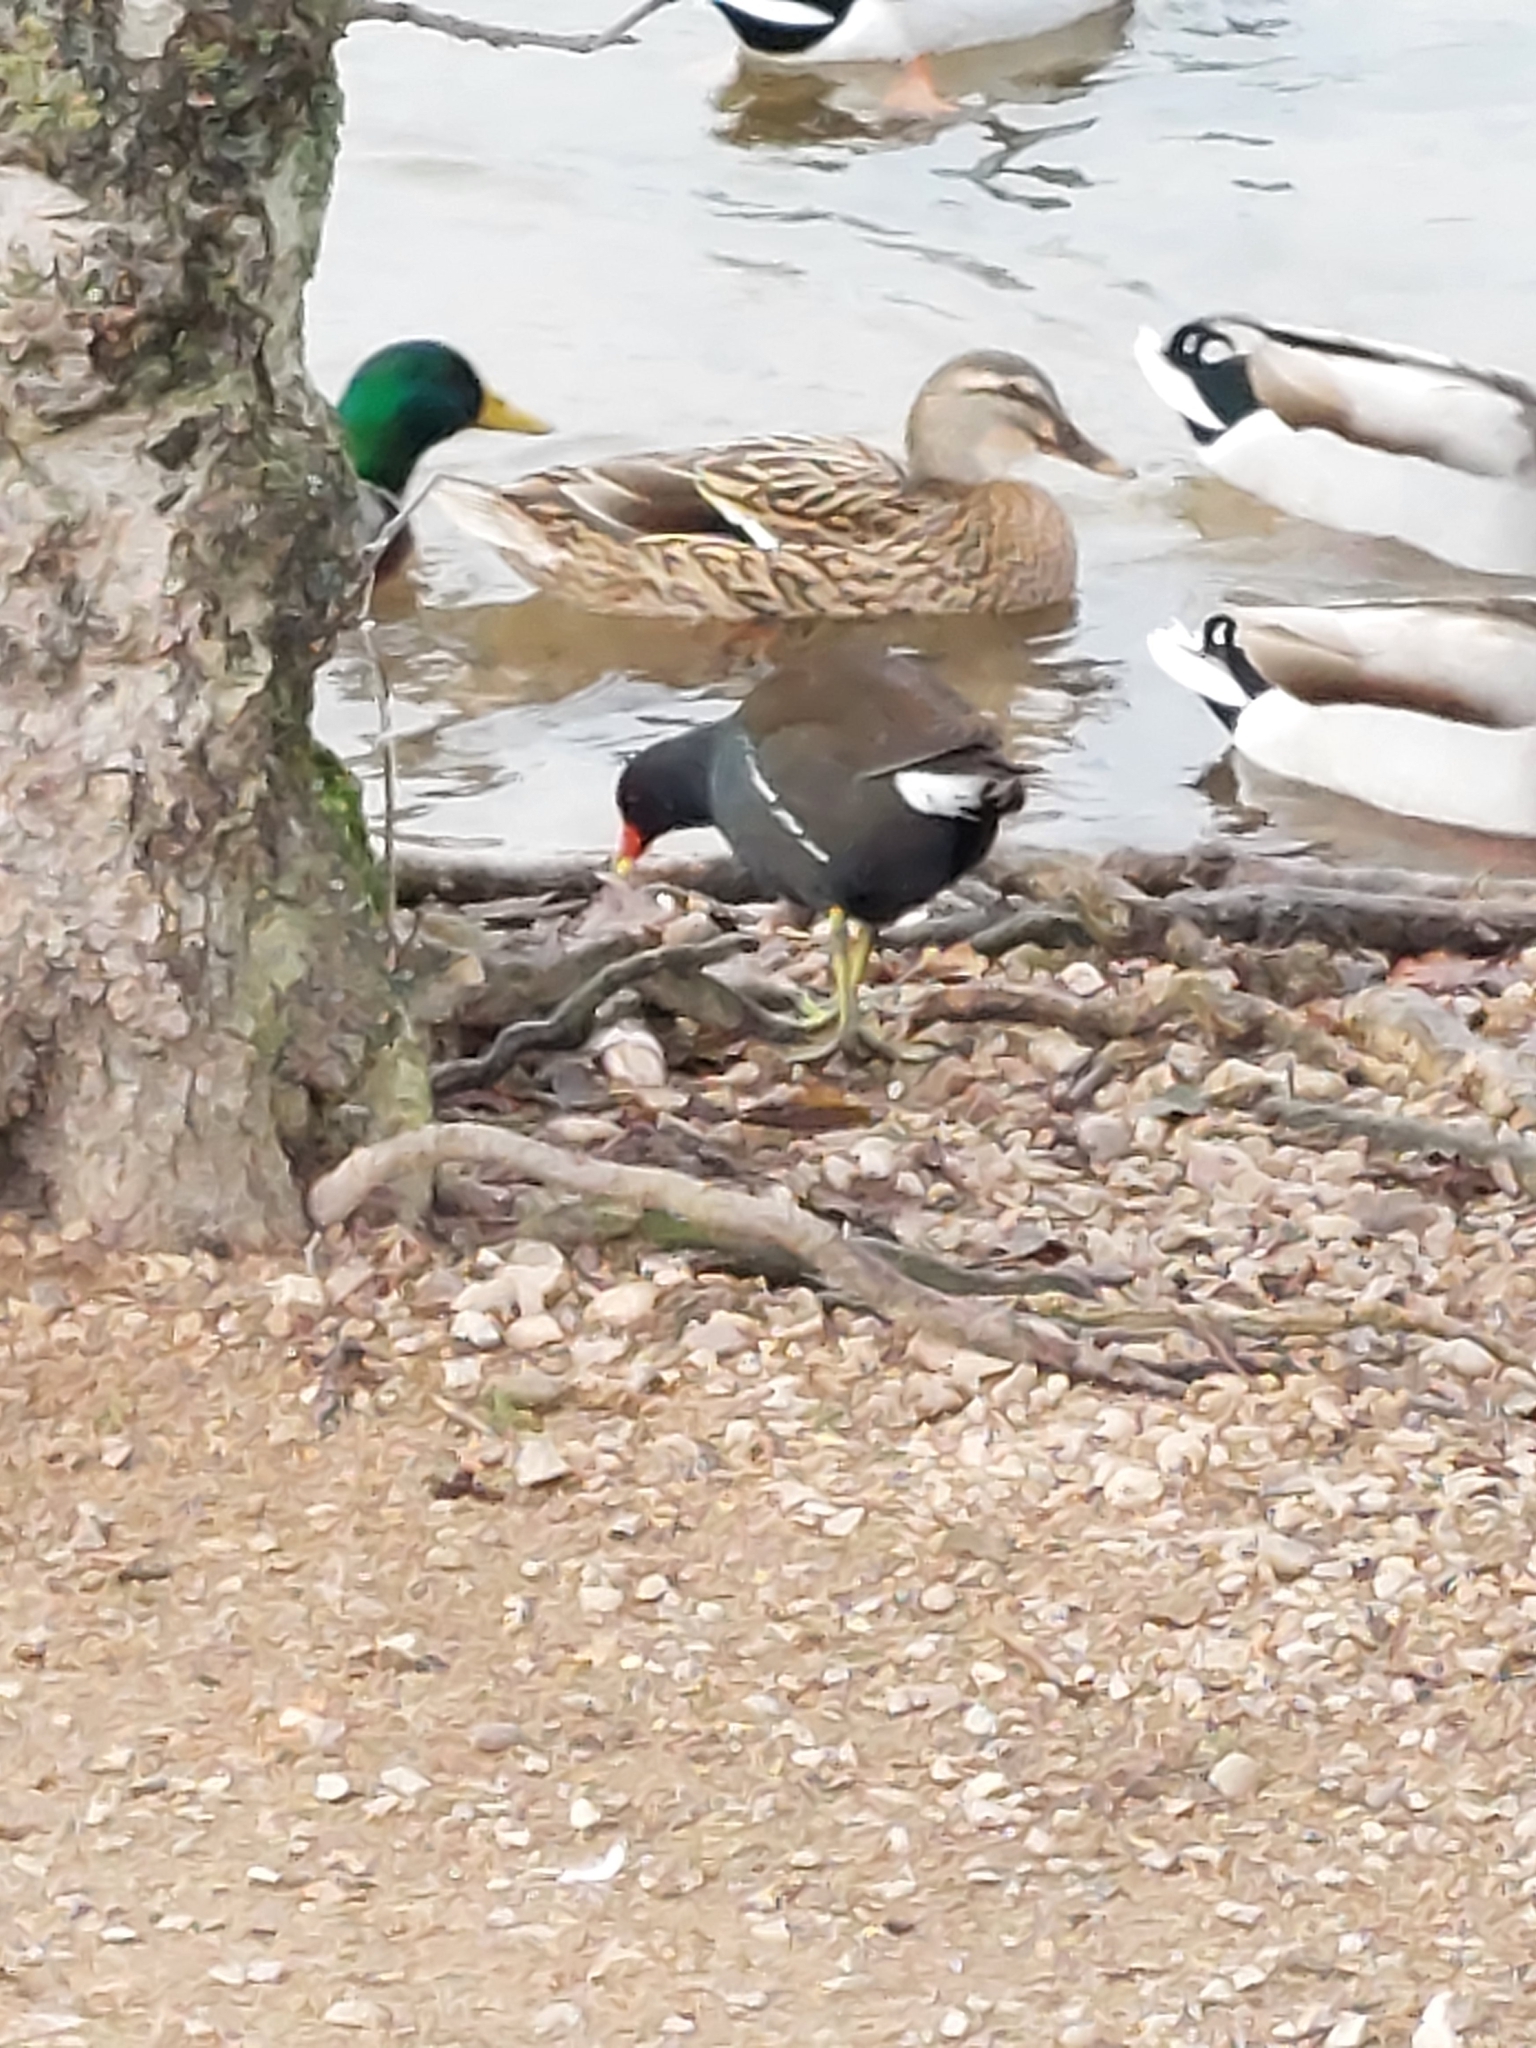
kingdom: Animalia
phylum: Chordata
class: Aves
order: Gruiformes
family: Rallidae
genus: Gallinula
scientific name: Gallinula chloropus
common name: Common moorhen
